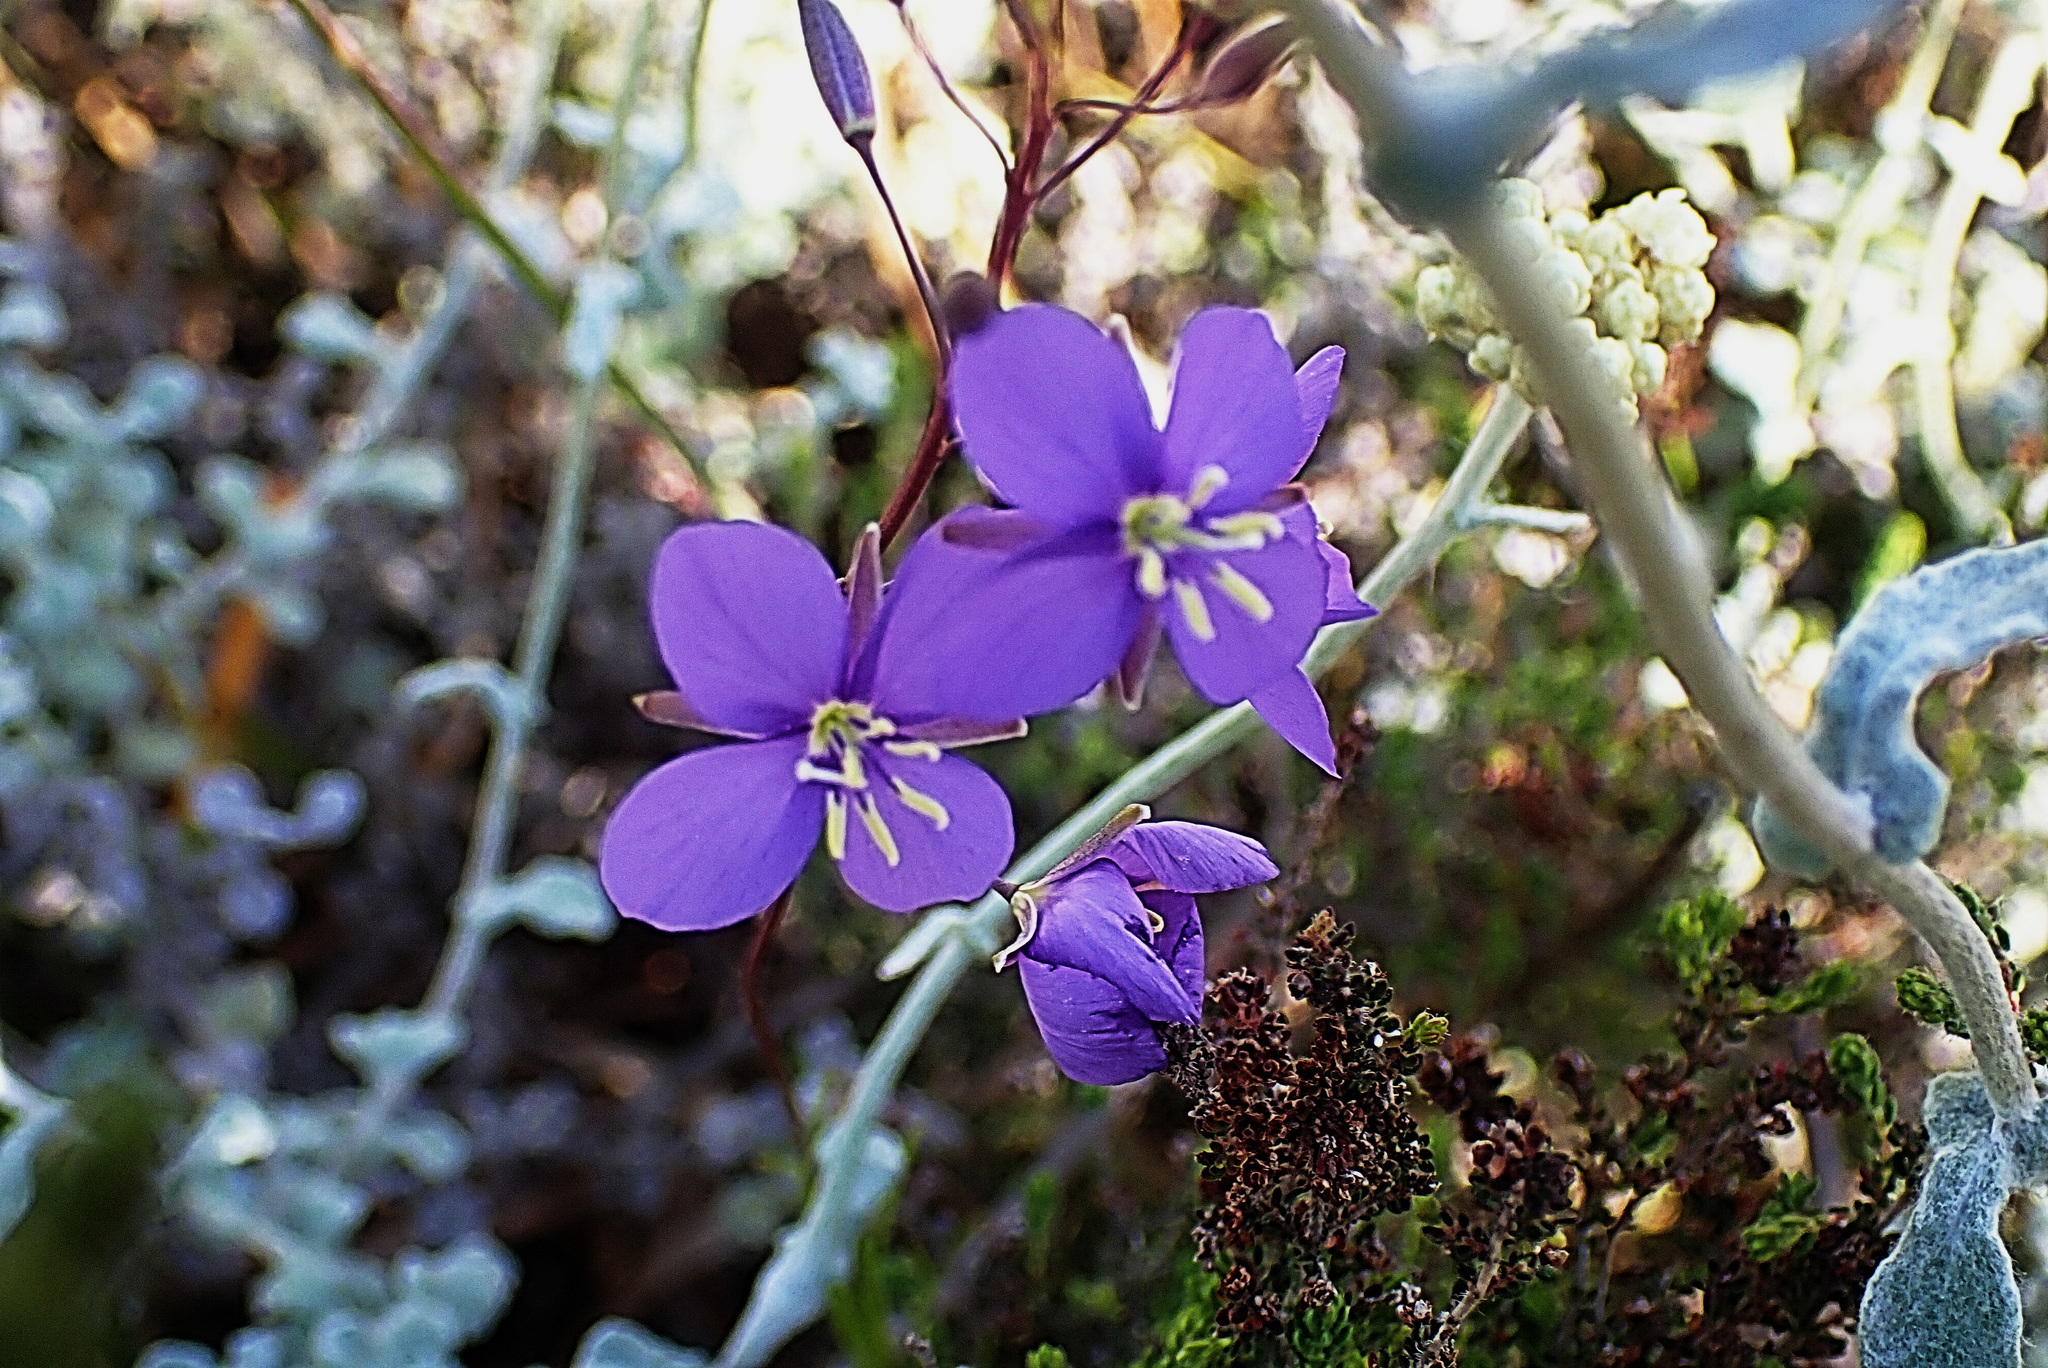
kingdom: Plantae
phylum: Tracheophyta
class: Magnoliopsida
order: Brassicales
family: Brassicaceae
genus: Heliophila
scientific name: Heliophila subulata
